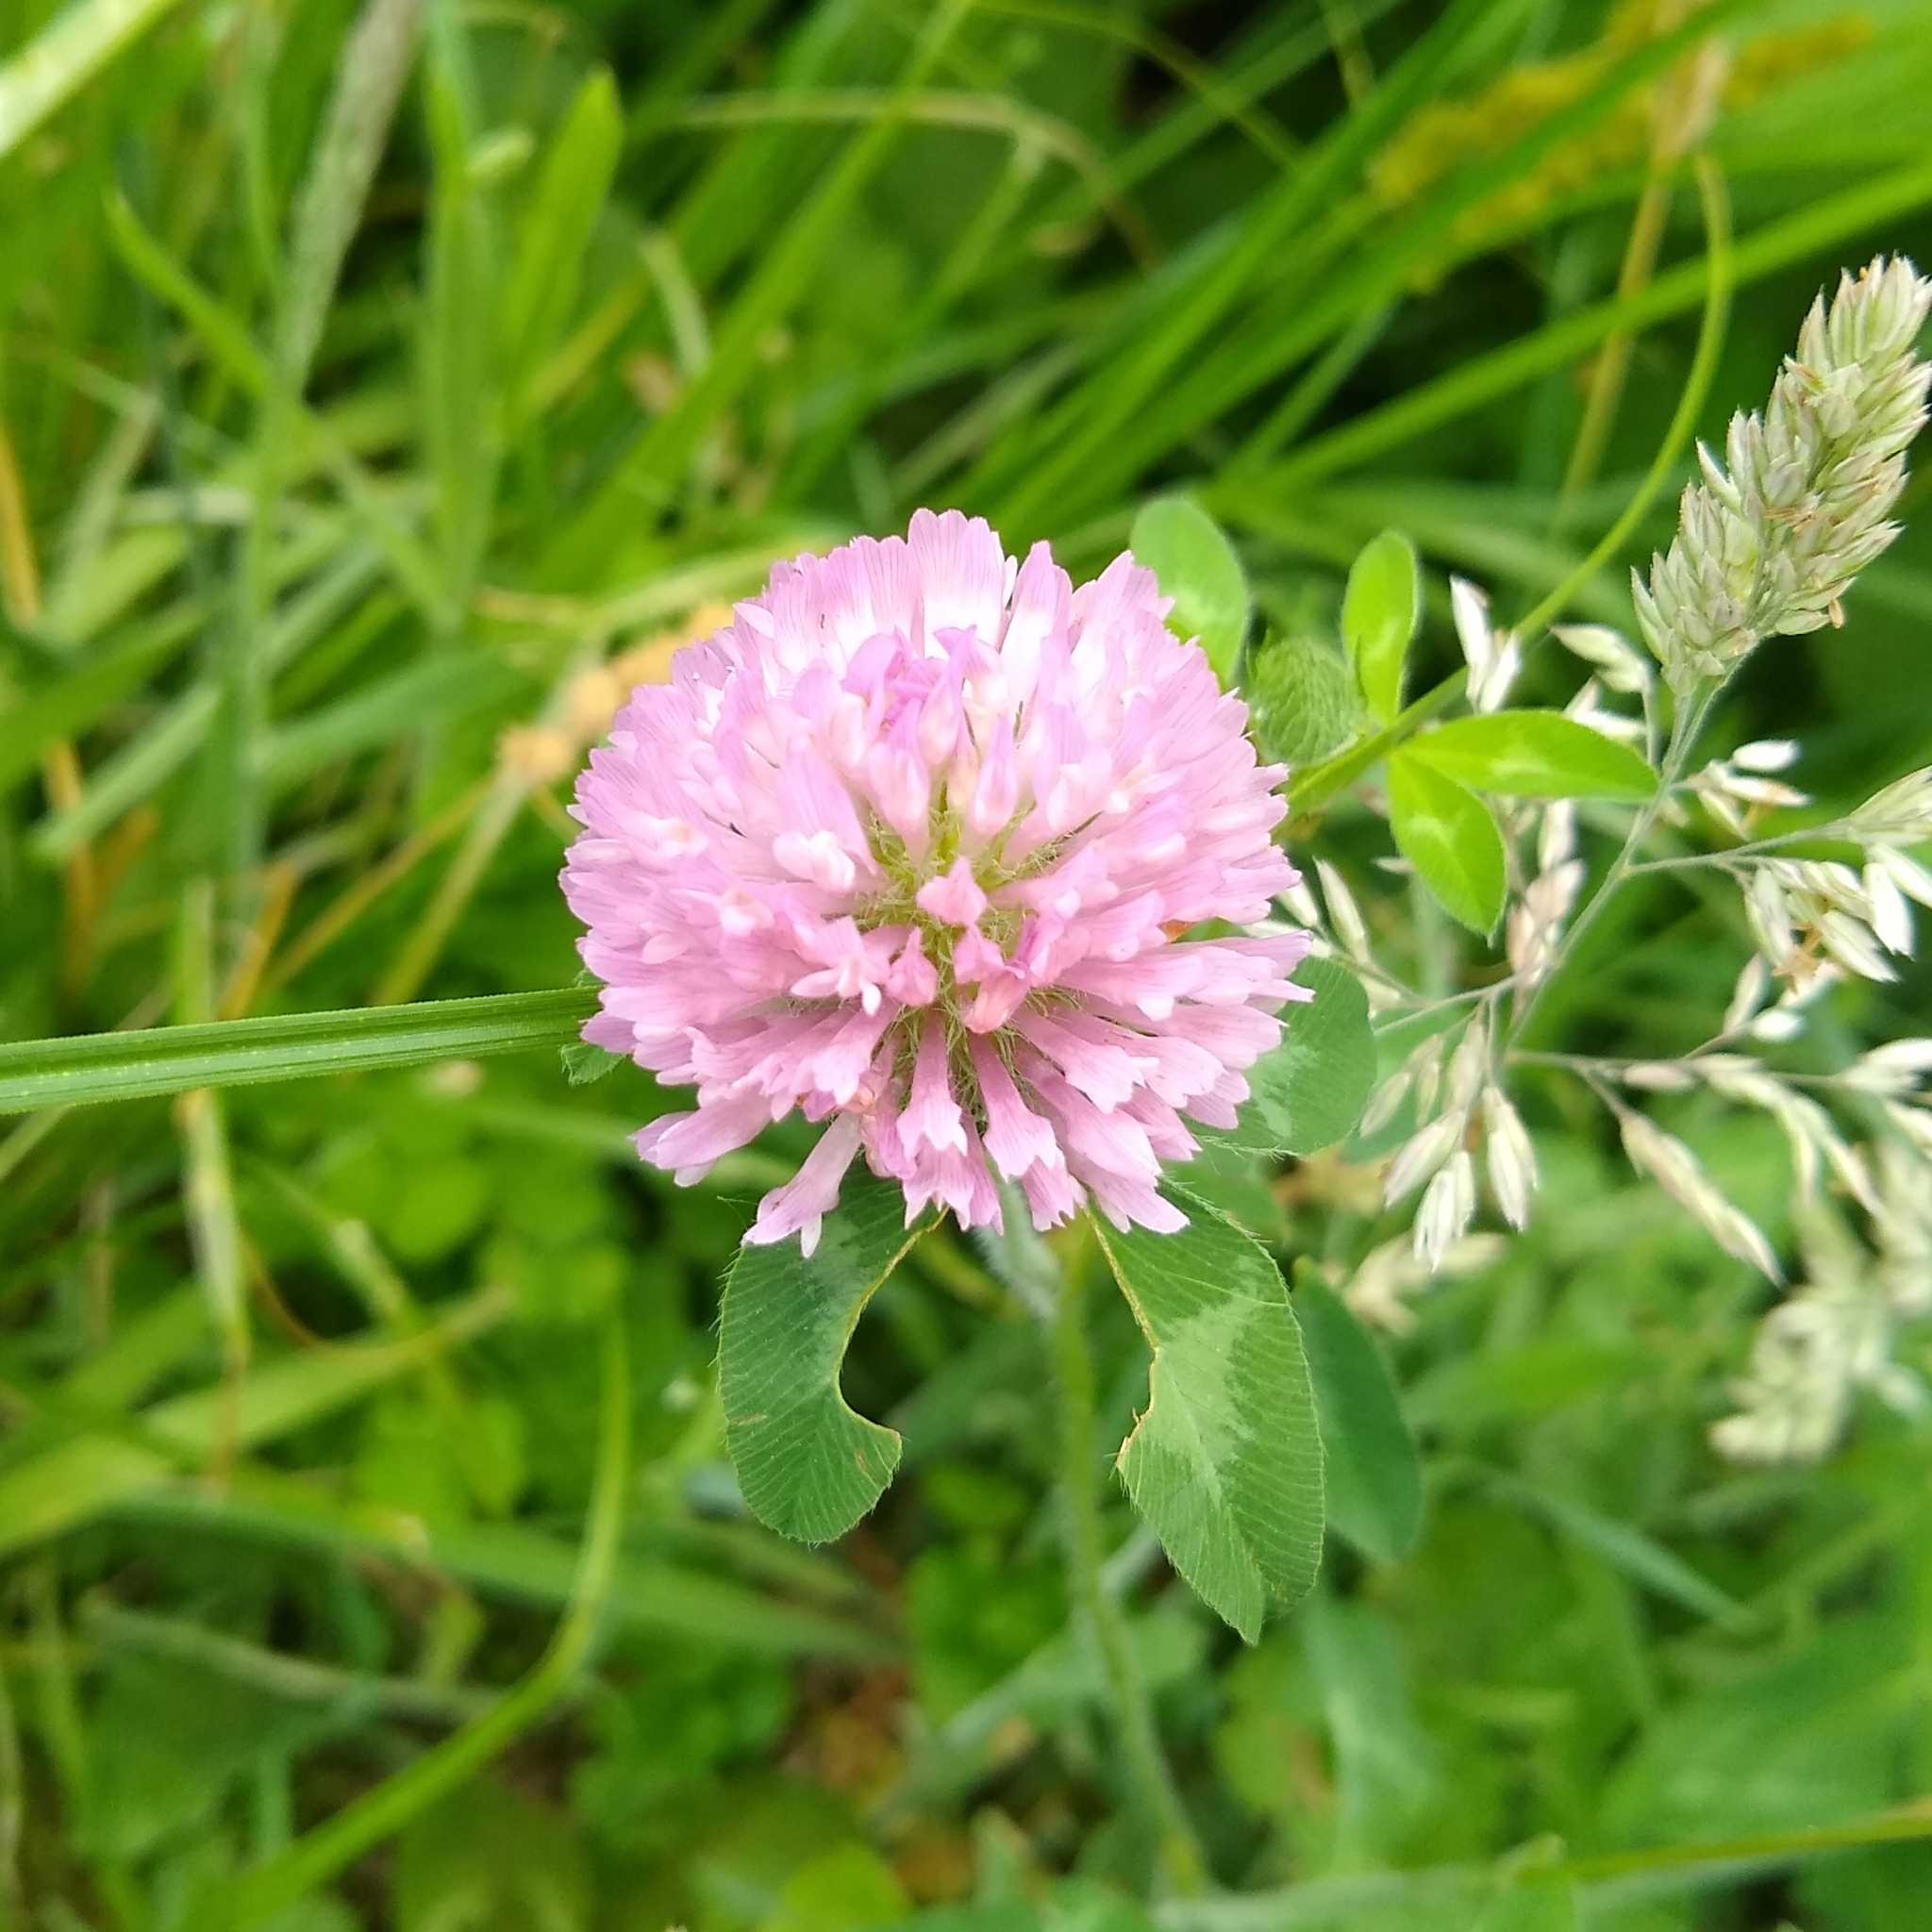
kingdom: Plantae
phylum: Tracheophyta
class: Magnoliopsida
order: Fabales
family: Fabaceae
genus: Trifolium
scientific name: Trifolium pratense
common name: Red clover
